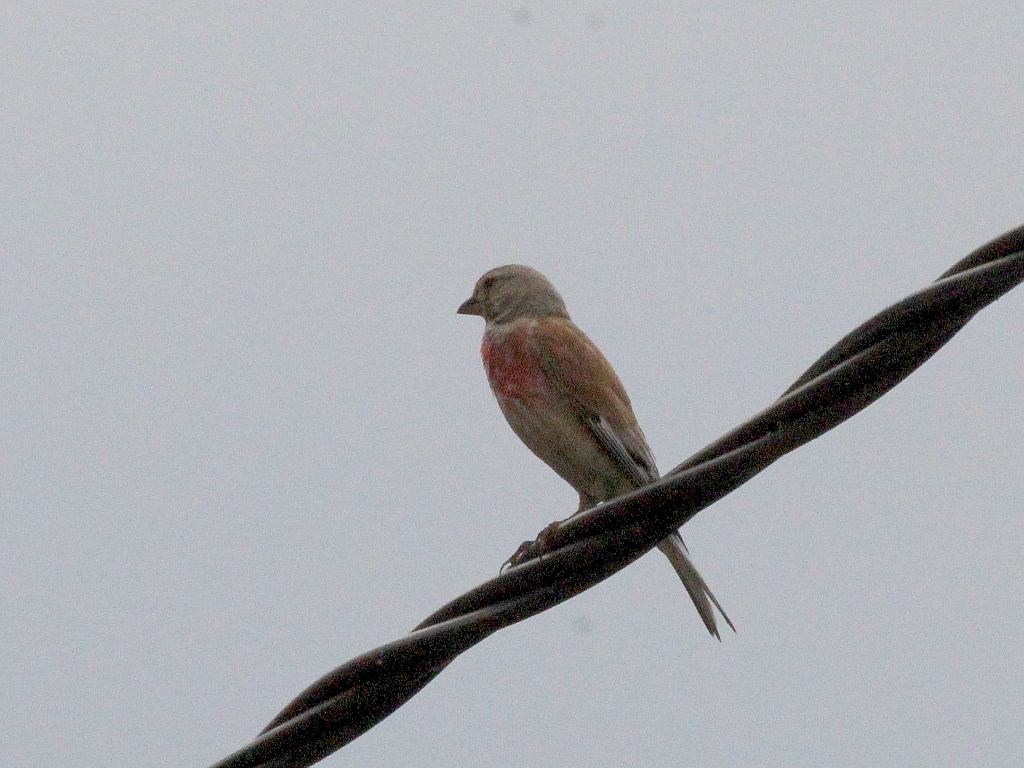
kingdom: Animalia
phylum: Chordata
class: Aves
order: Passeriformes
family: Fringillidae
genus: Linaria
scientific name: Linaria cannabina
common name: Common linnet
